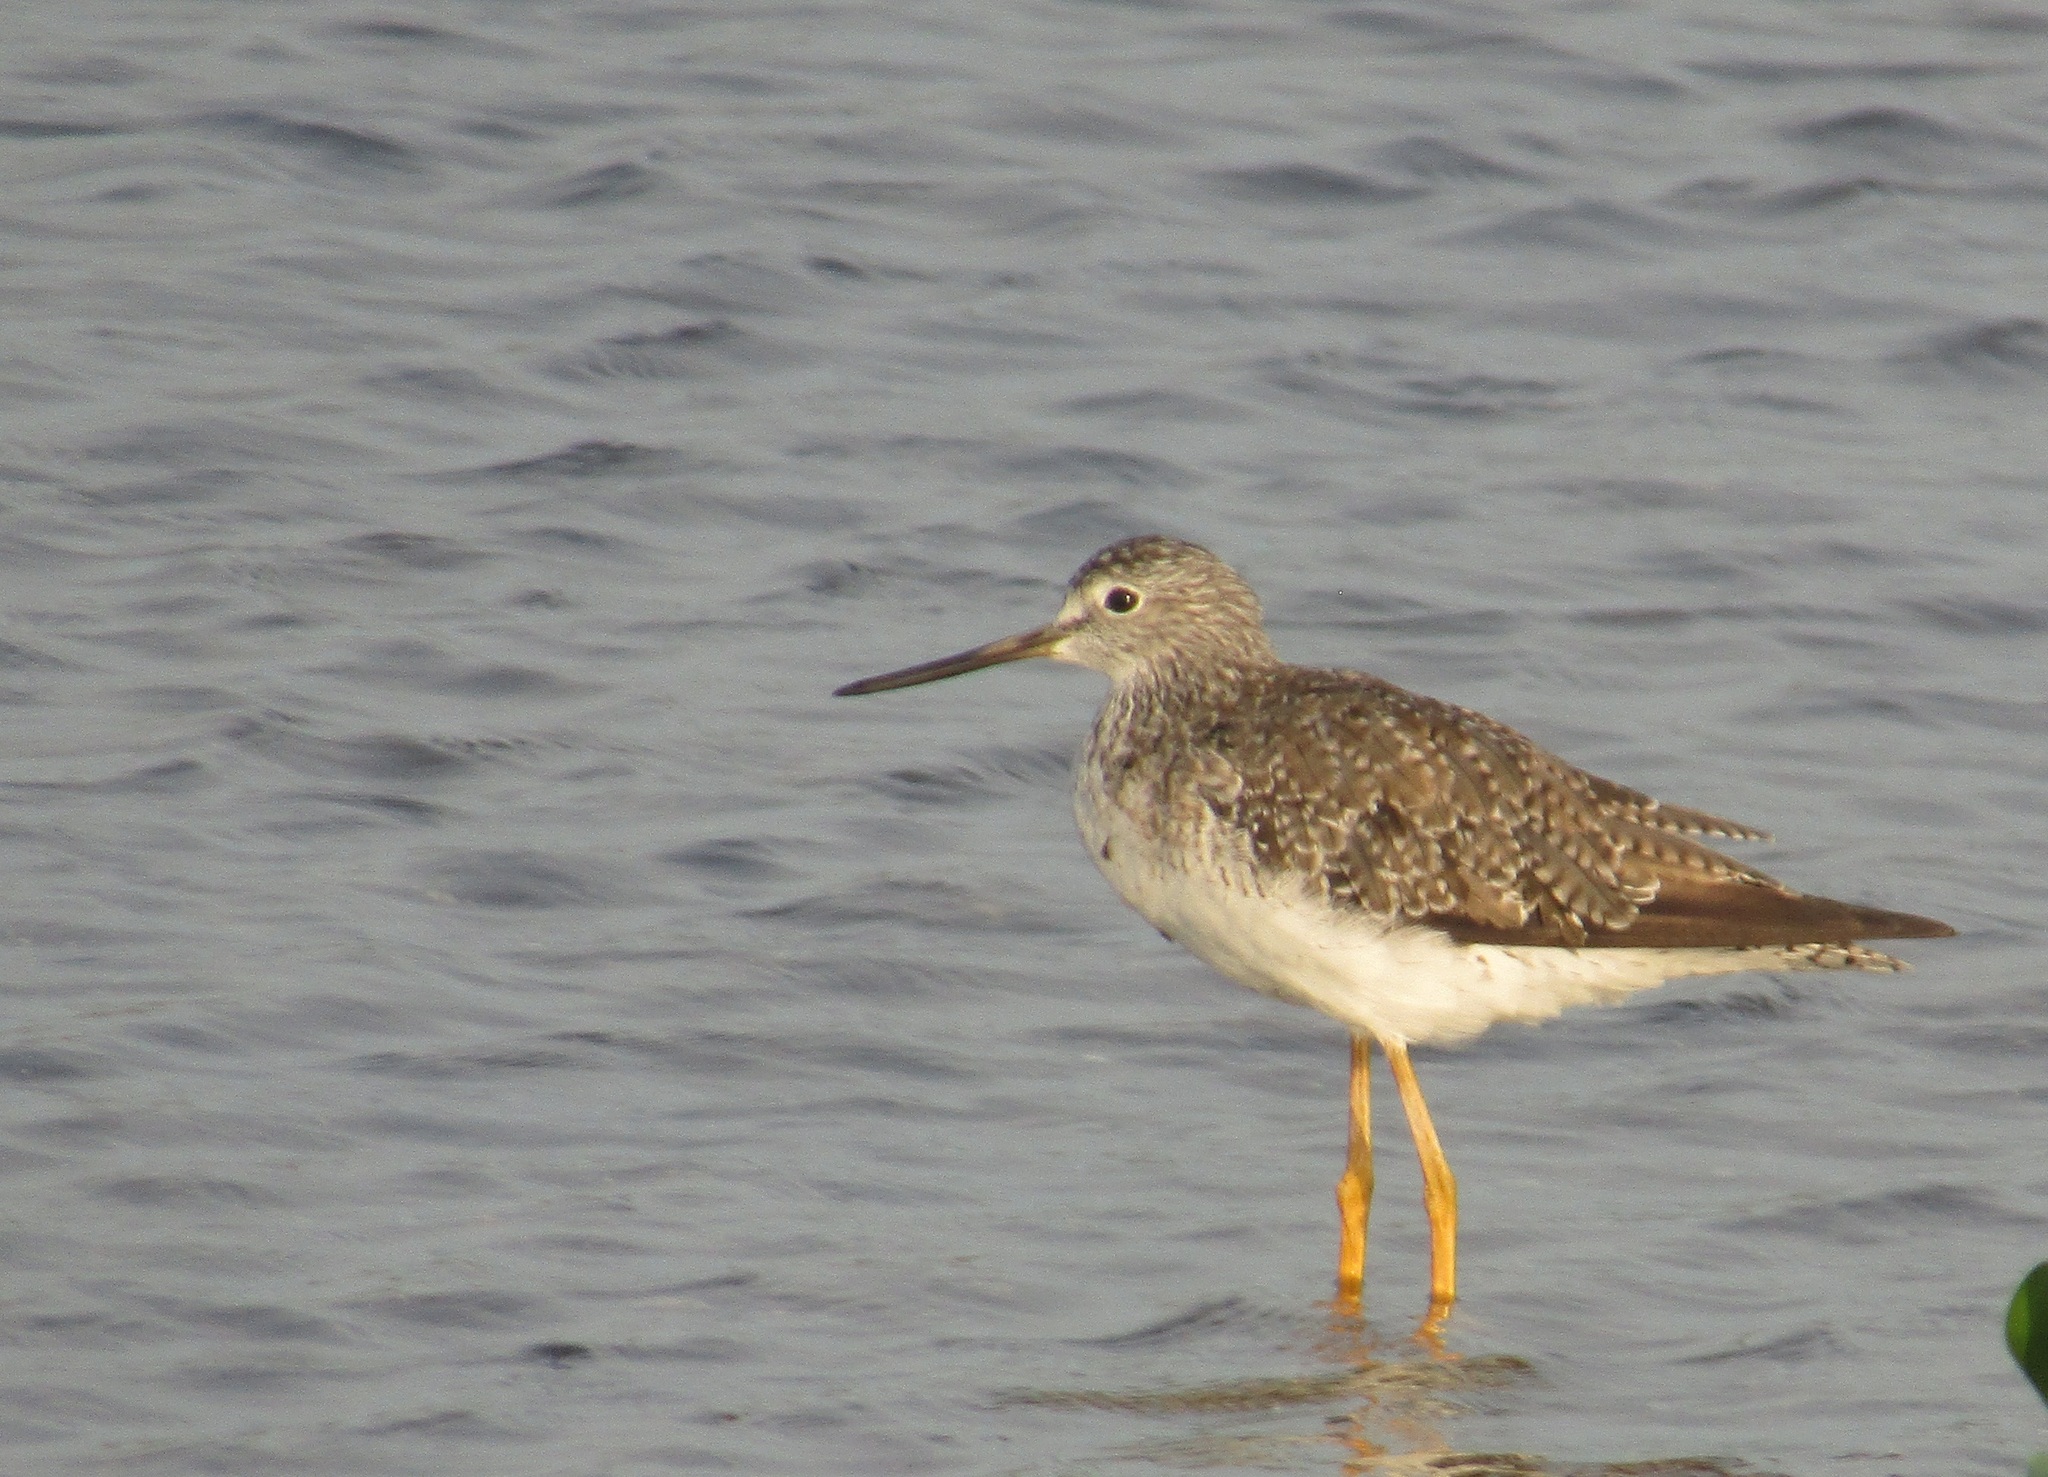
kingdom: Animalia
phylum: Chordata
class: Aves
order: Charadriiformes
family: Scolopacidae
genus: Tringa
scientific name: Tringa melanoleuca
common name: Greater yellowlegs
